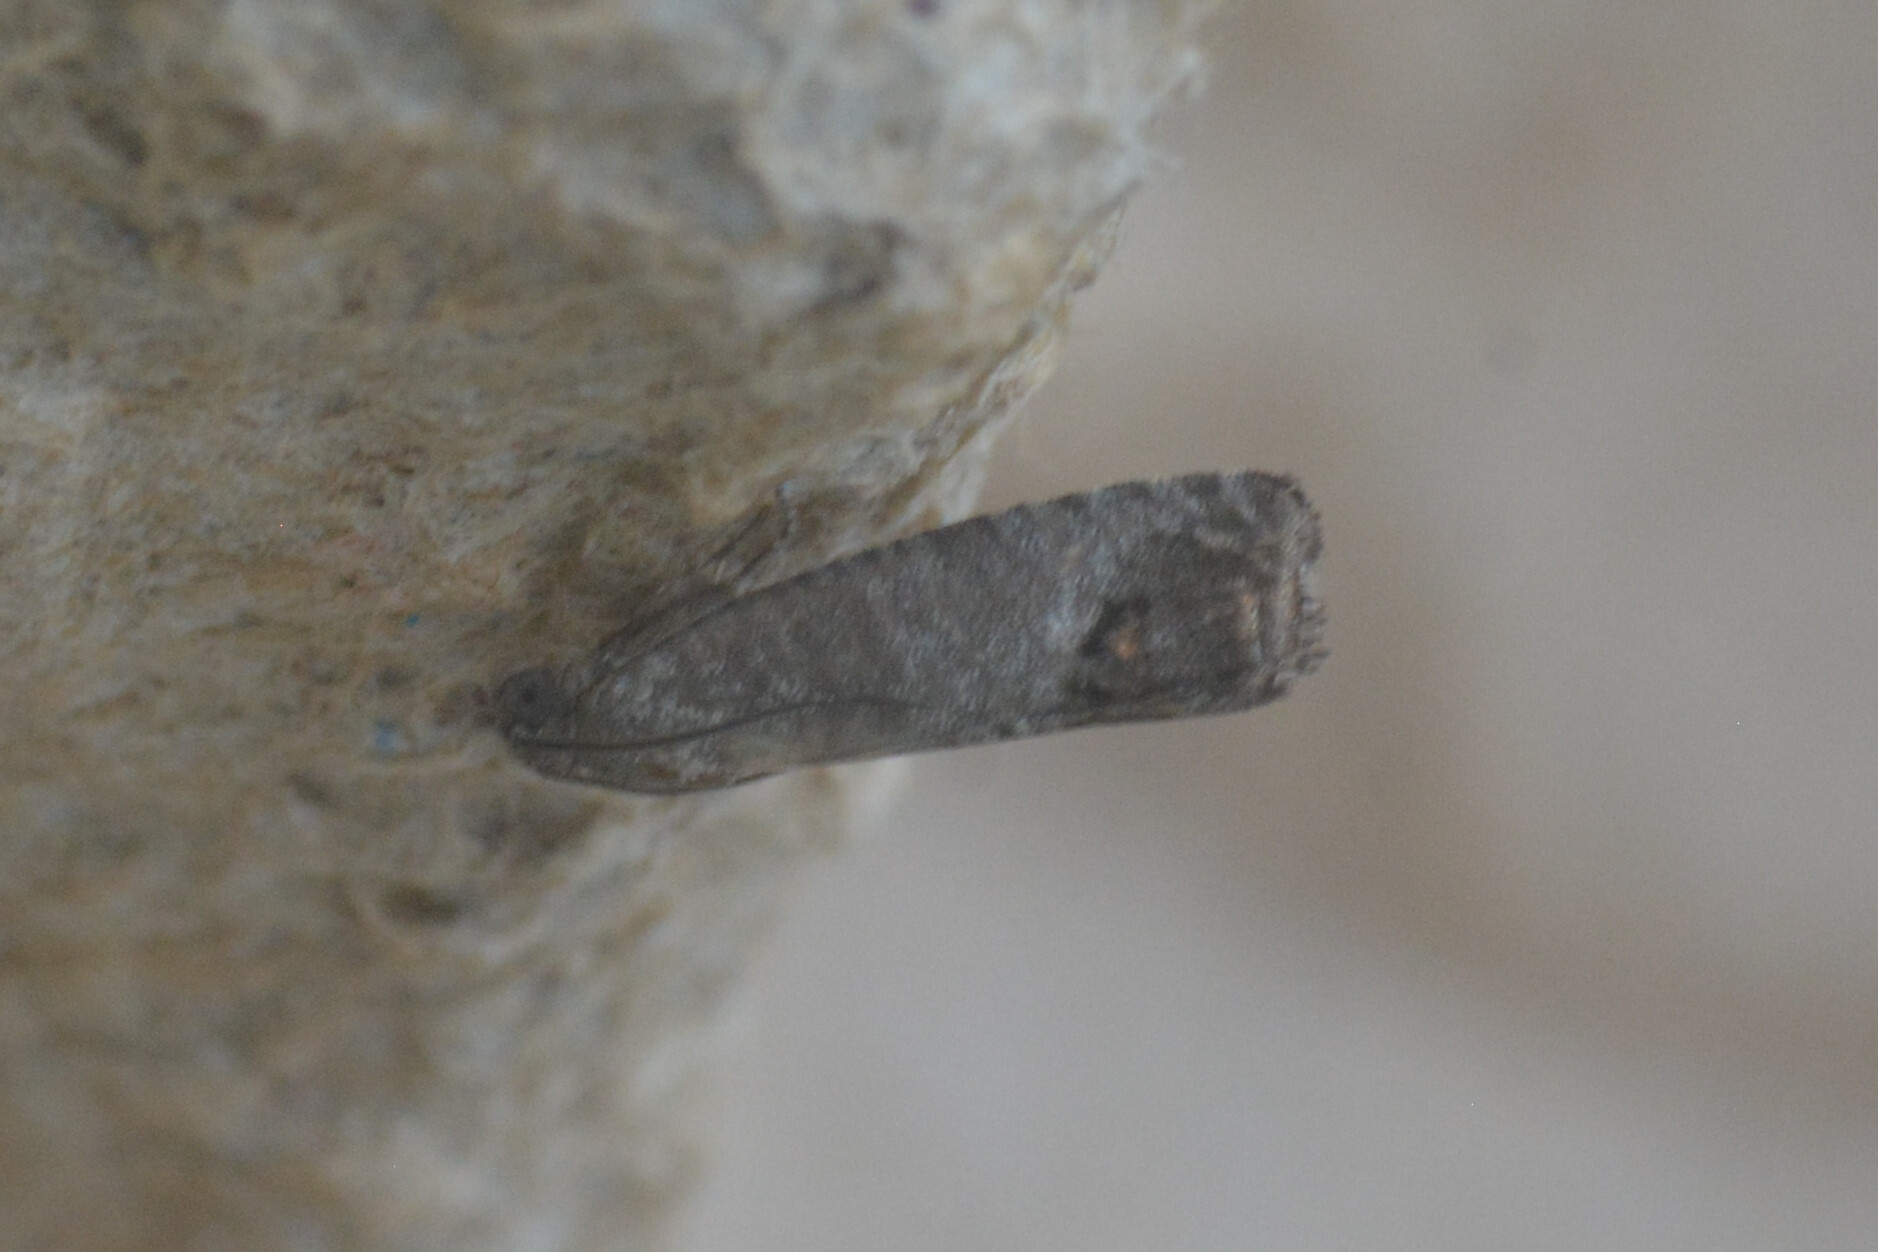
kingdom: Animalia
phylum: Arthropoda
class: Insecta
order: Lepidoptera
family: Tortricidae
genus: Cydia
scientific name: Cydia pomonella
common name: Codling moth
